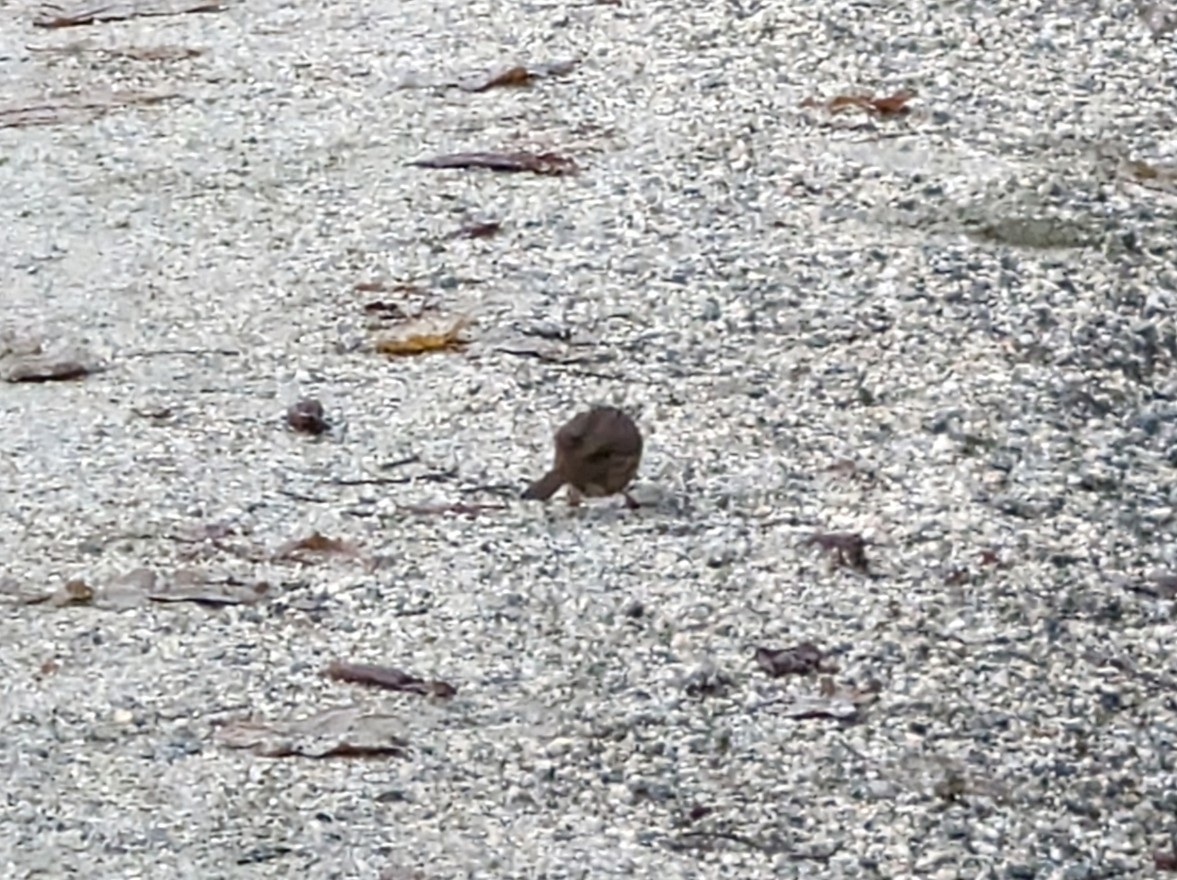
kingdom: Animalia
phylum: Chordata
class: Aves
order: Passeriformes
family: Passerellidae
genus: Melospiza
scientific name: Melospiza melodia
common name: Song sparrow
